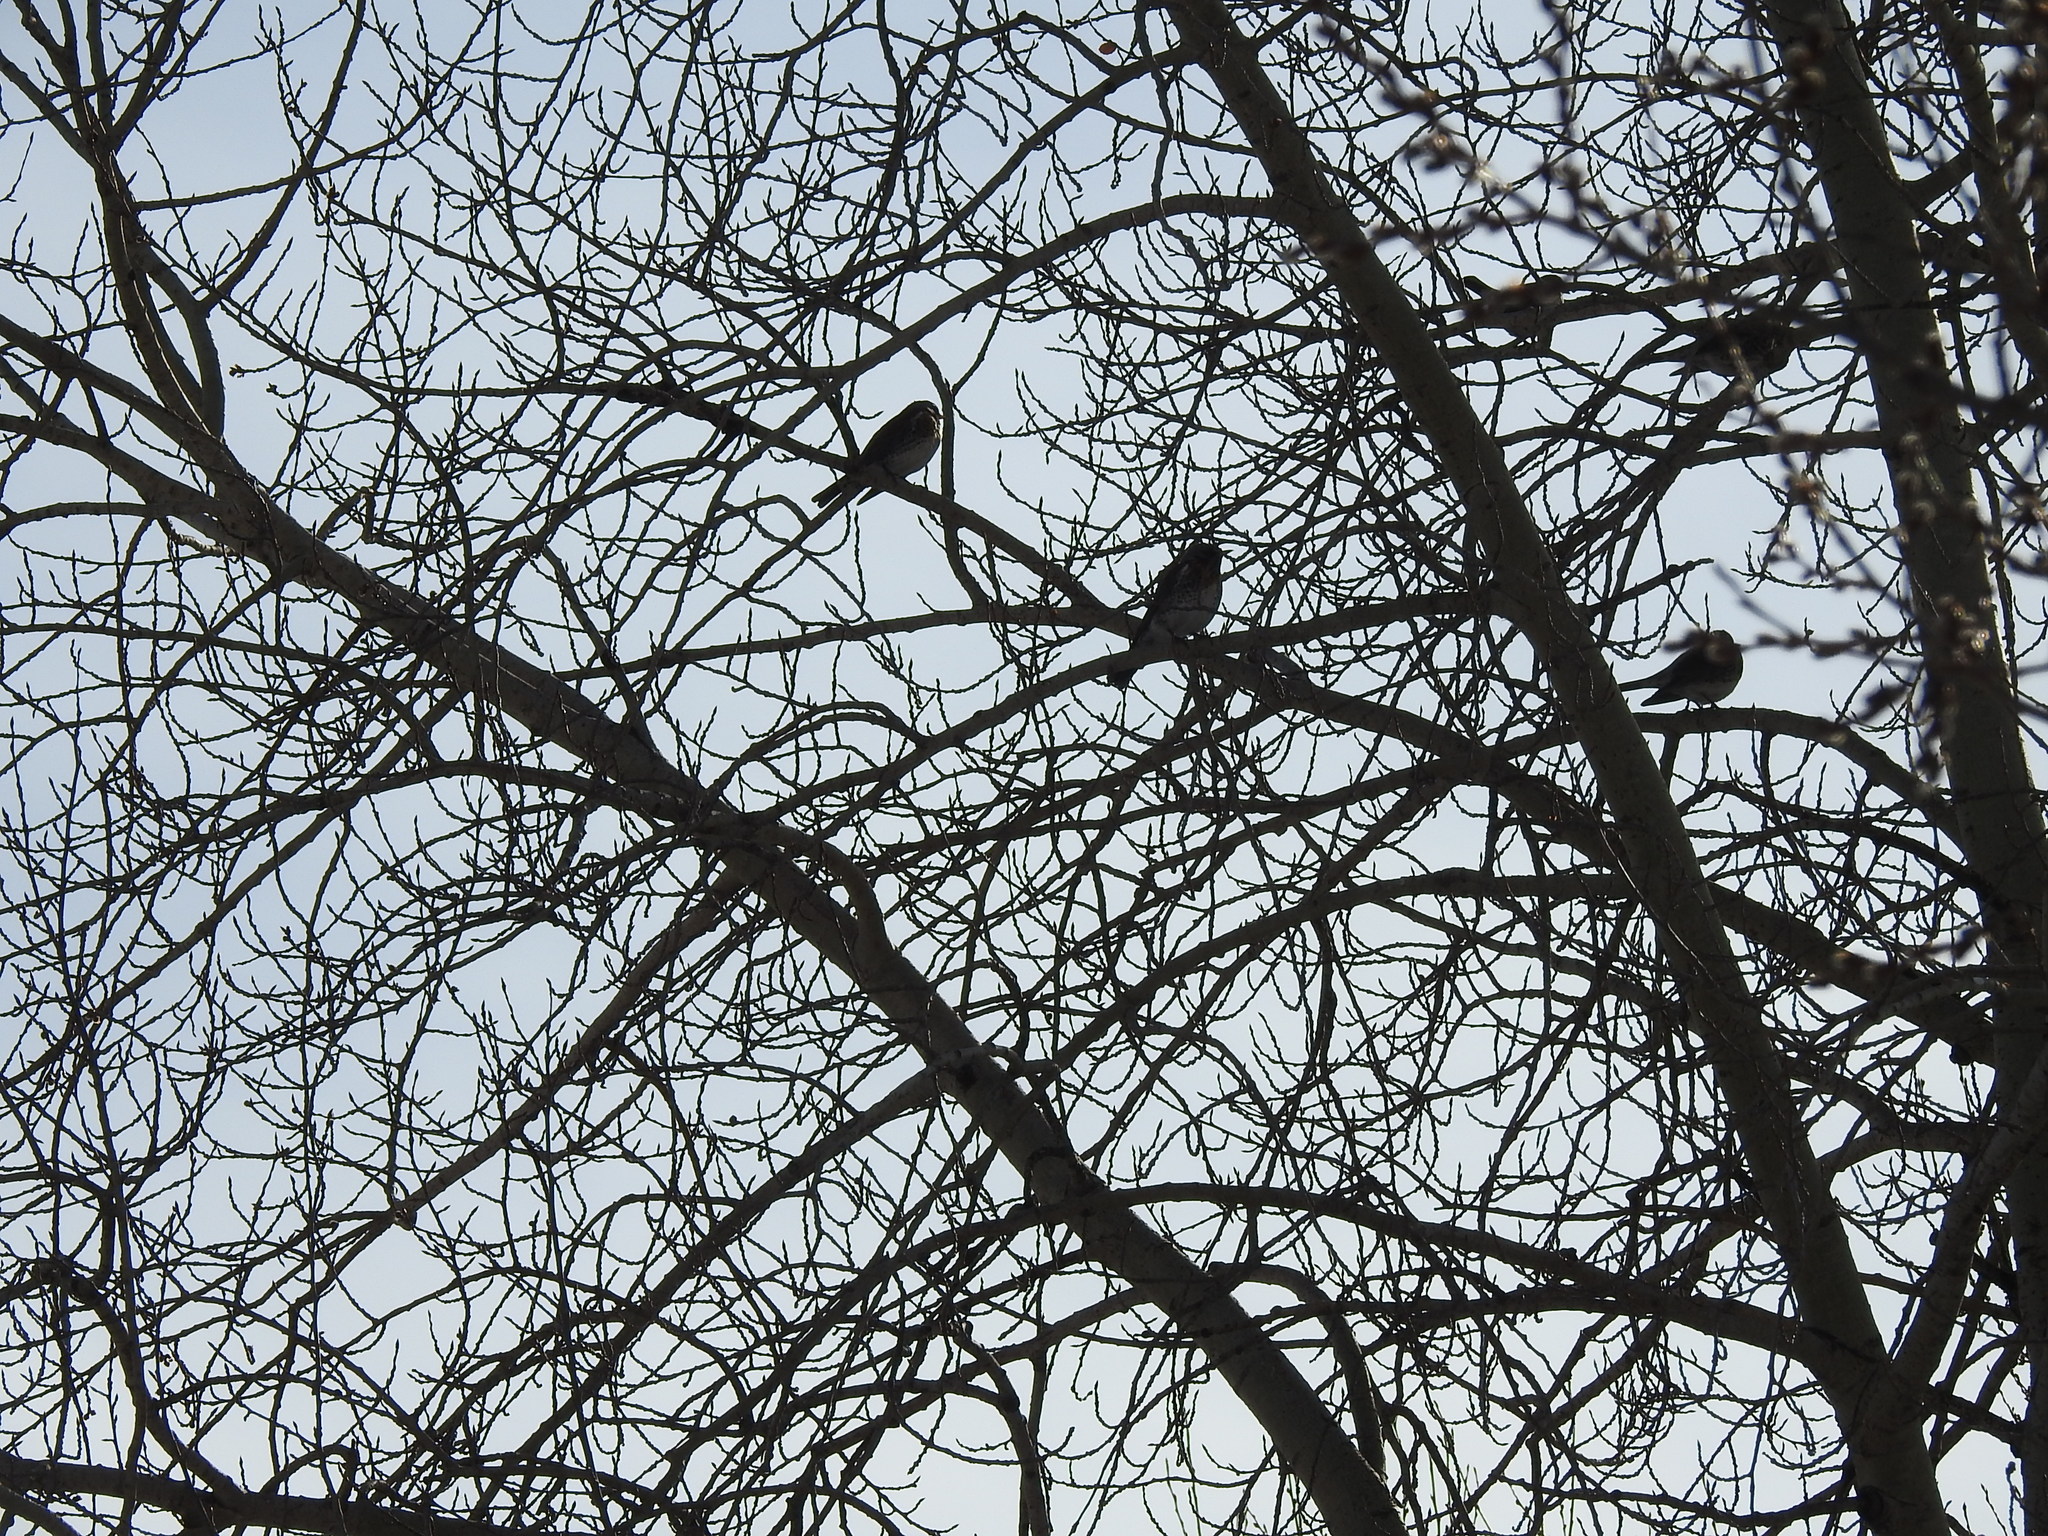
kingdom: Animalia
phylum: Chordata
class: Aves
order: Passeriformes
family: Turdidae
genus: Turdus
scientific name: Turdus pilaris
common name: Fieldfare
